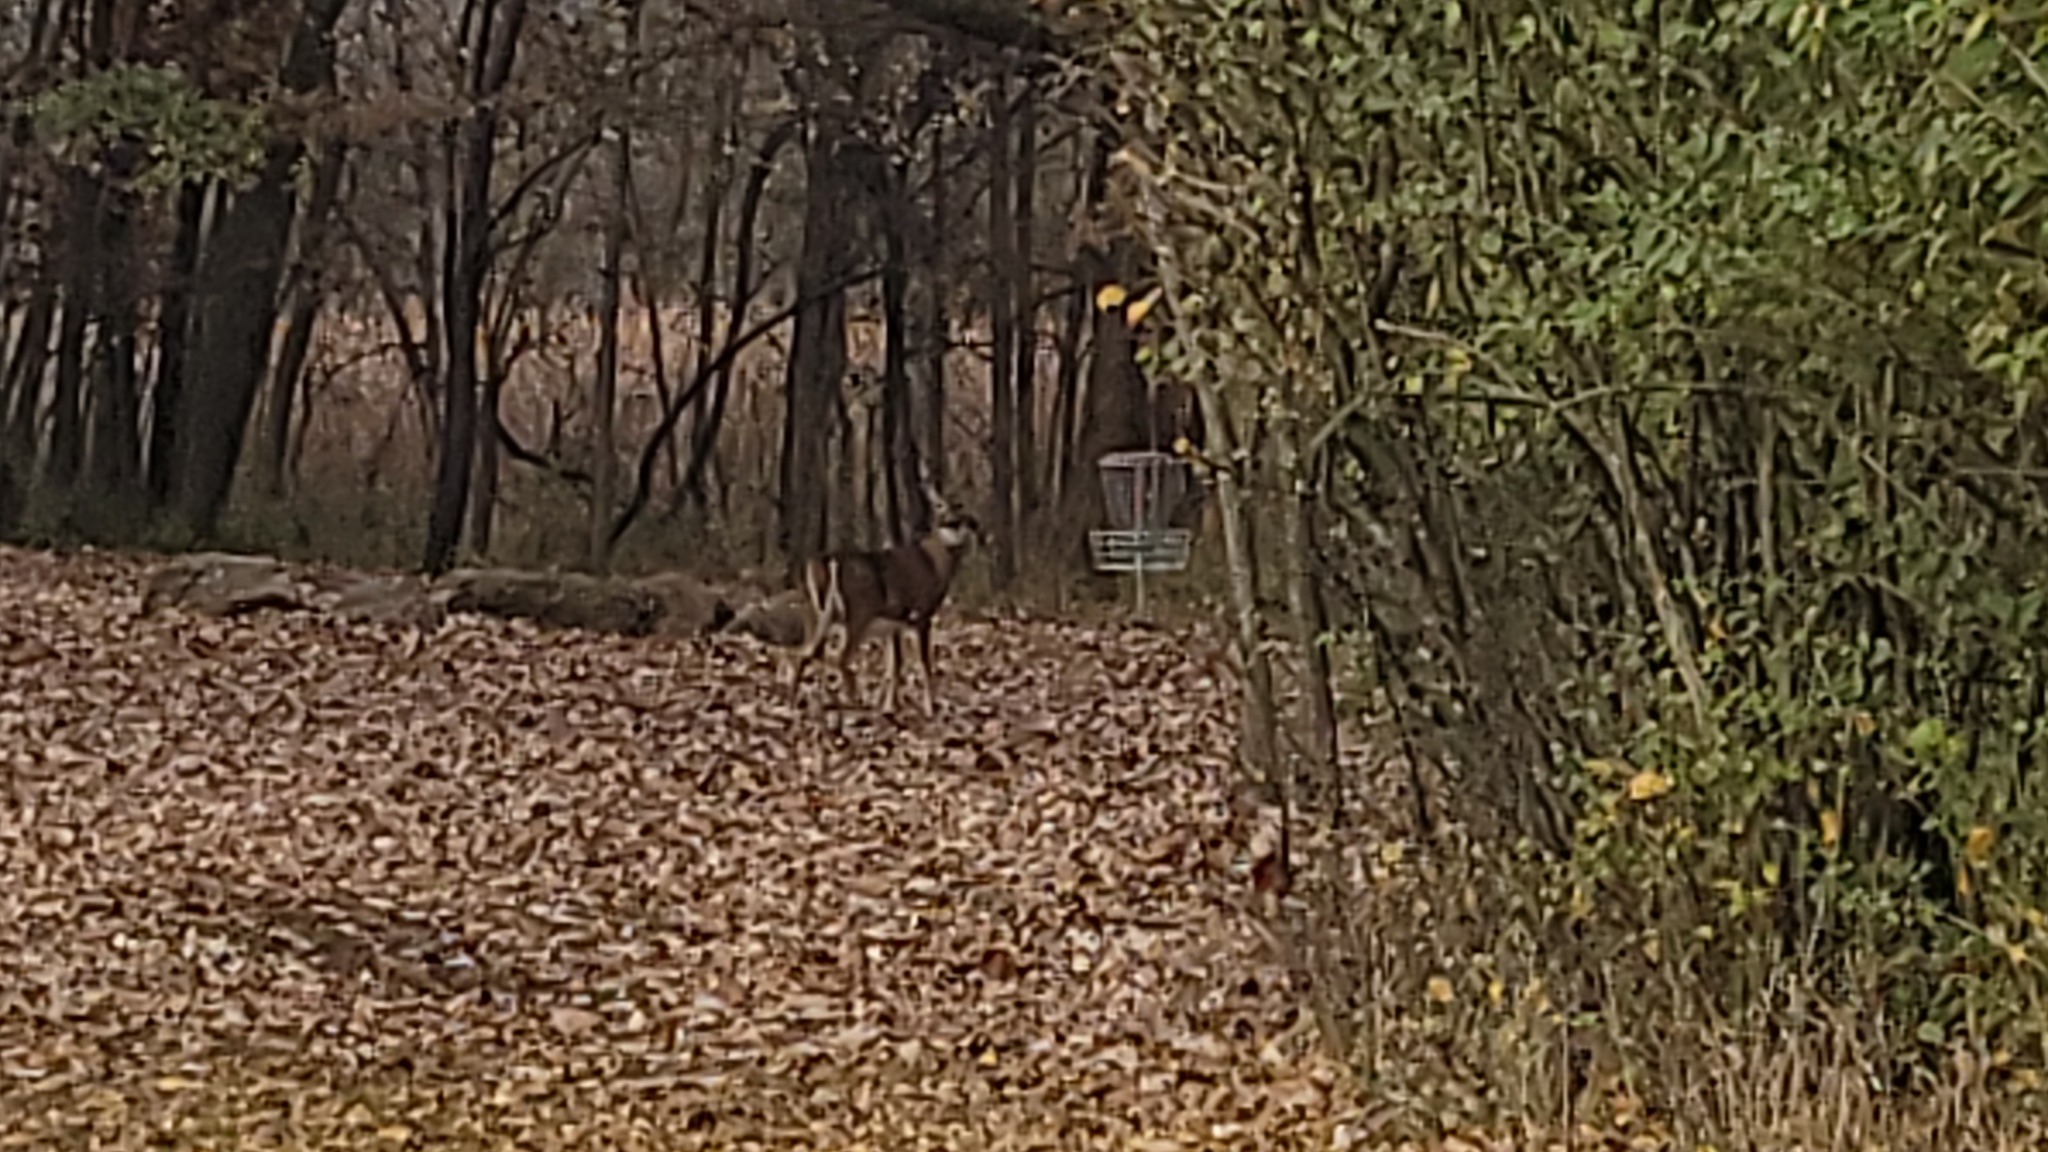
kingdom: Animalia
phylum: Chordata
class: Mammalia
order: Artiodactyla
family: Cervidae
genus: Odocoileus
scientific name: Odocoileus virginianus
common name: White-tailed deer
